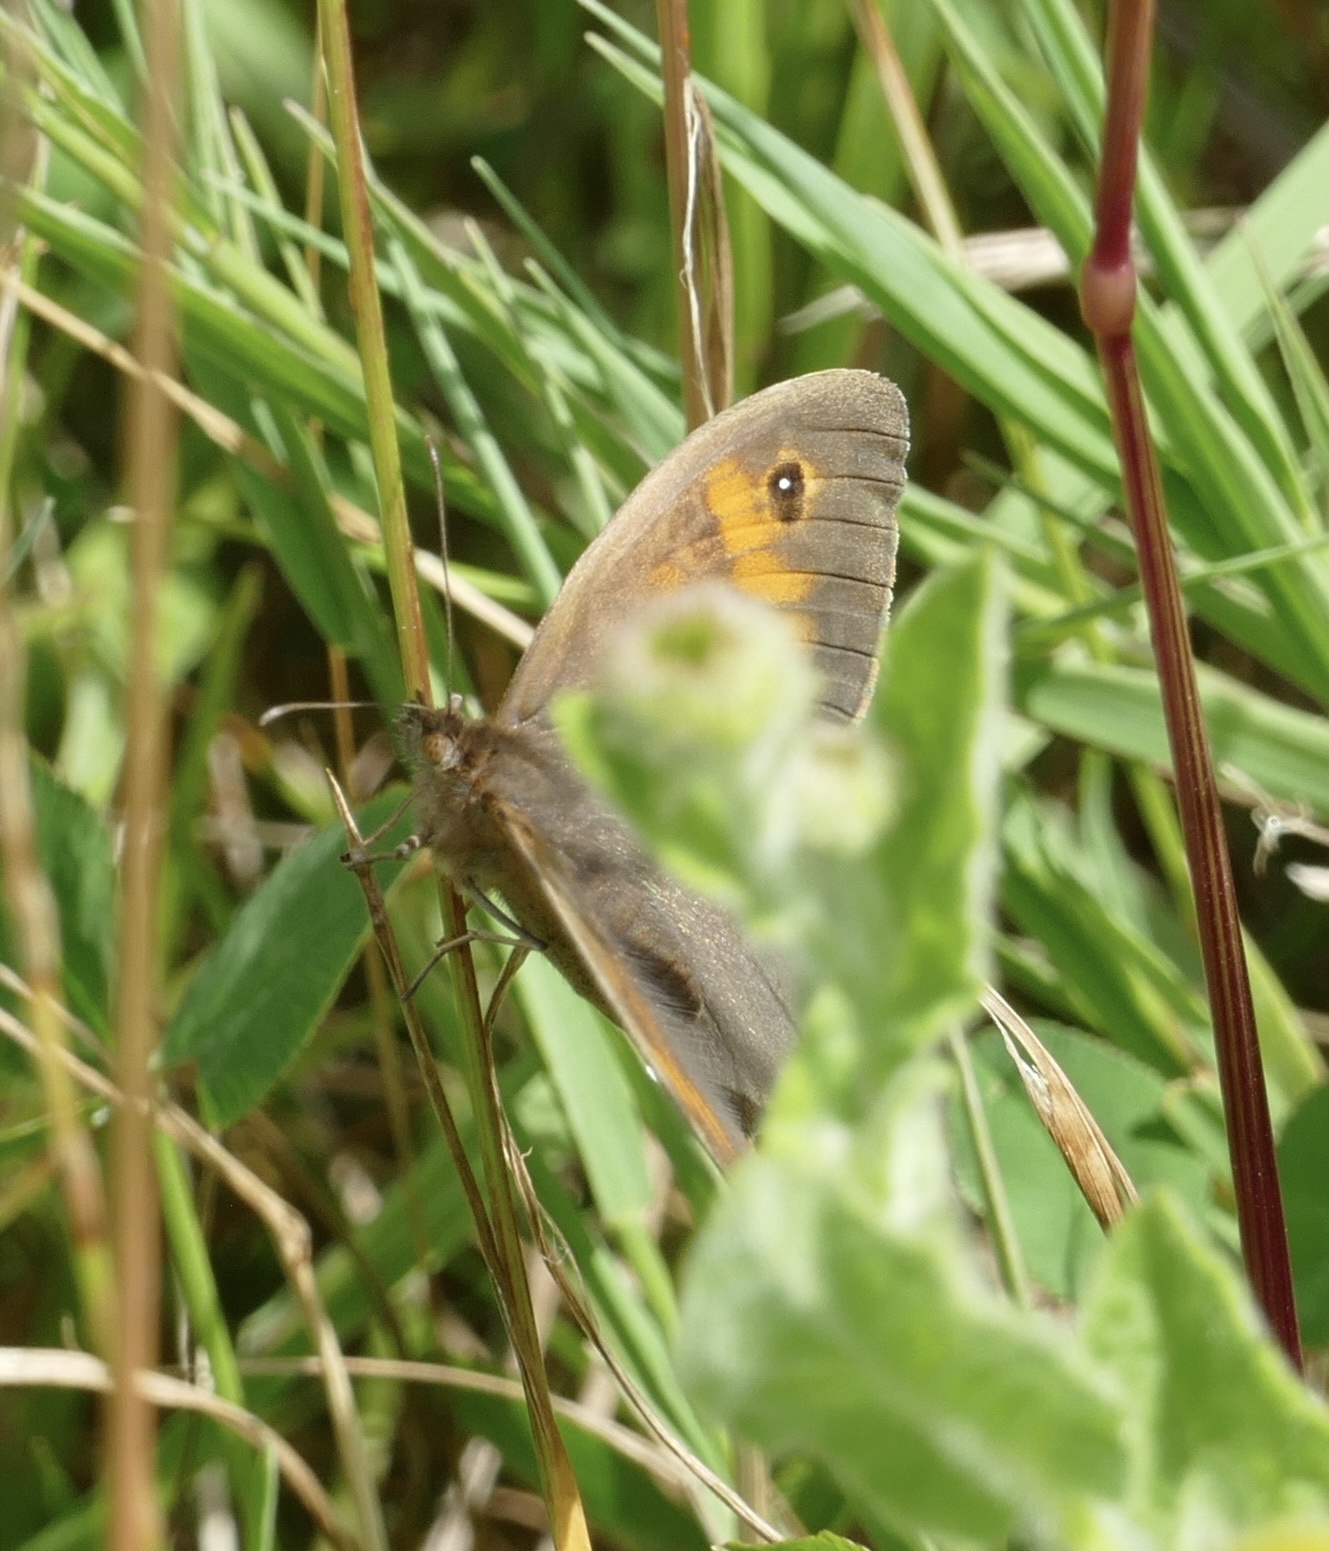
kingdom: Animalia
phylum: Arthropoda
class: Insecta
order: Lepidoptera
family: Nymphalidae
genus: Maniola
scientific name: Maniola jurtina
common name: Meadow brown
